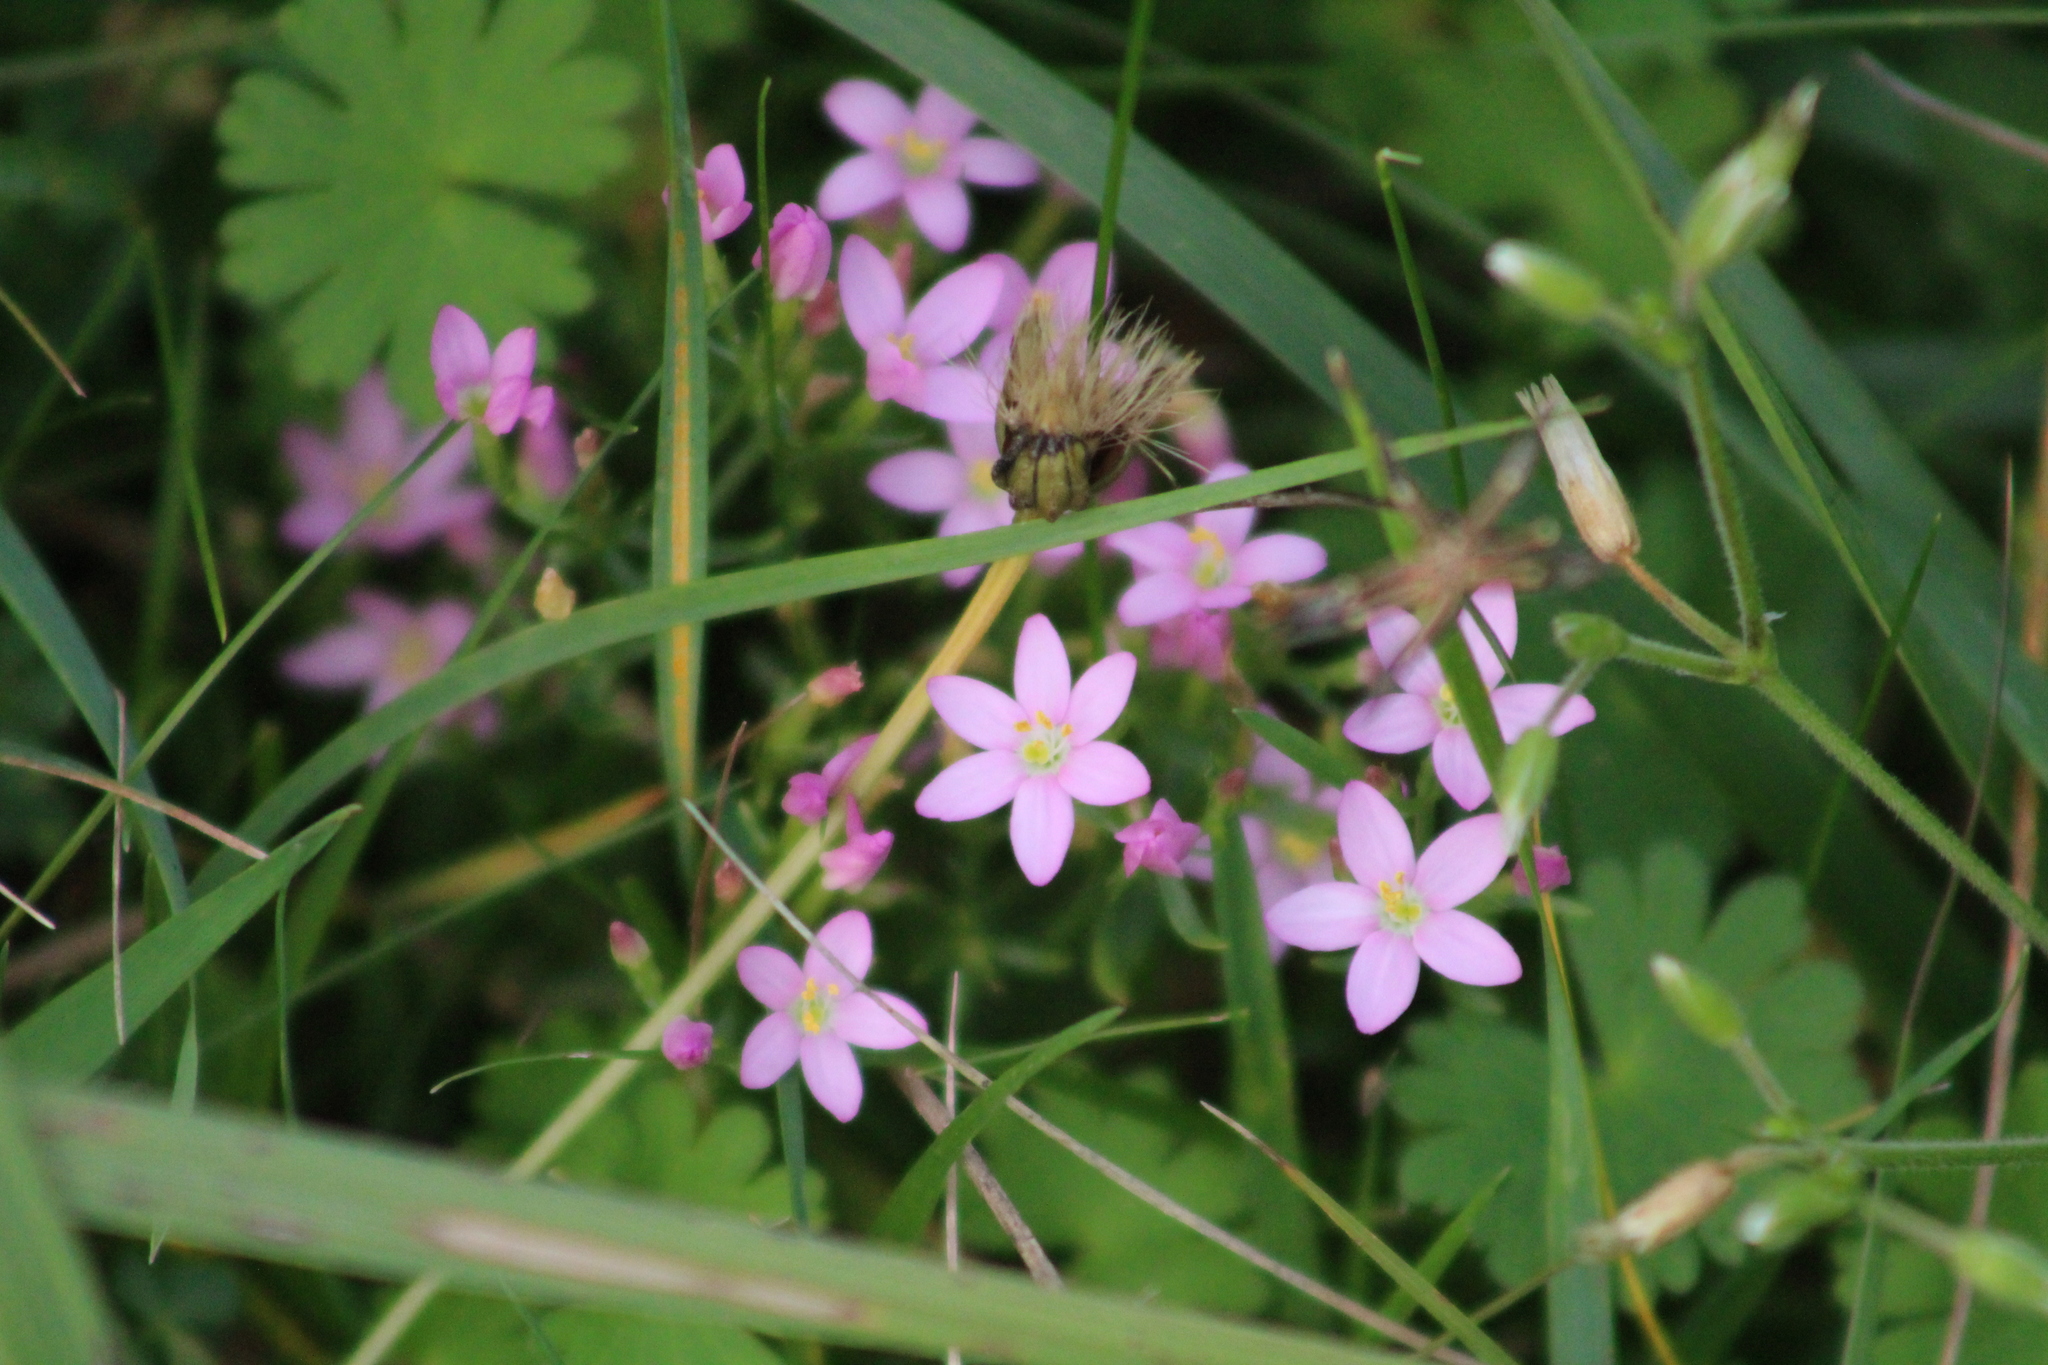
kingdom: Plantae
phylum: Tracheophyta
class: Magnoliopsida
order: Gentianales
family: Gentianaceae
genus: Centaurium
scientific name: Centaurium pulchellum
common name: Lesser centaury
